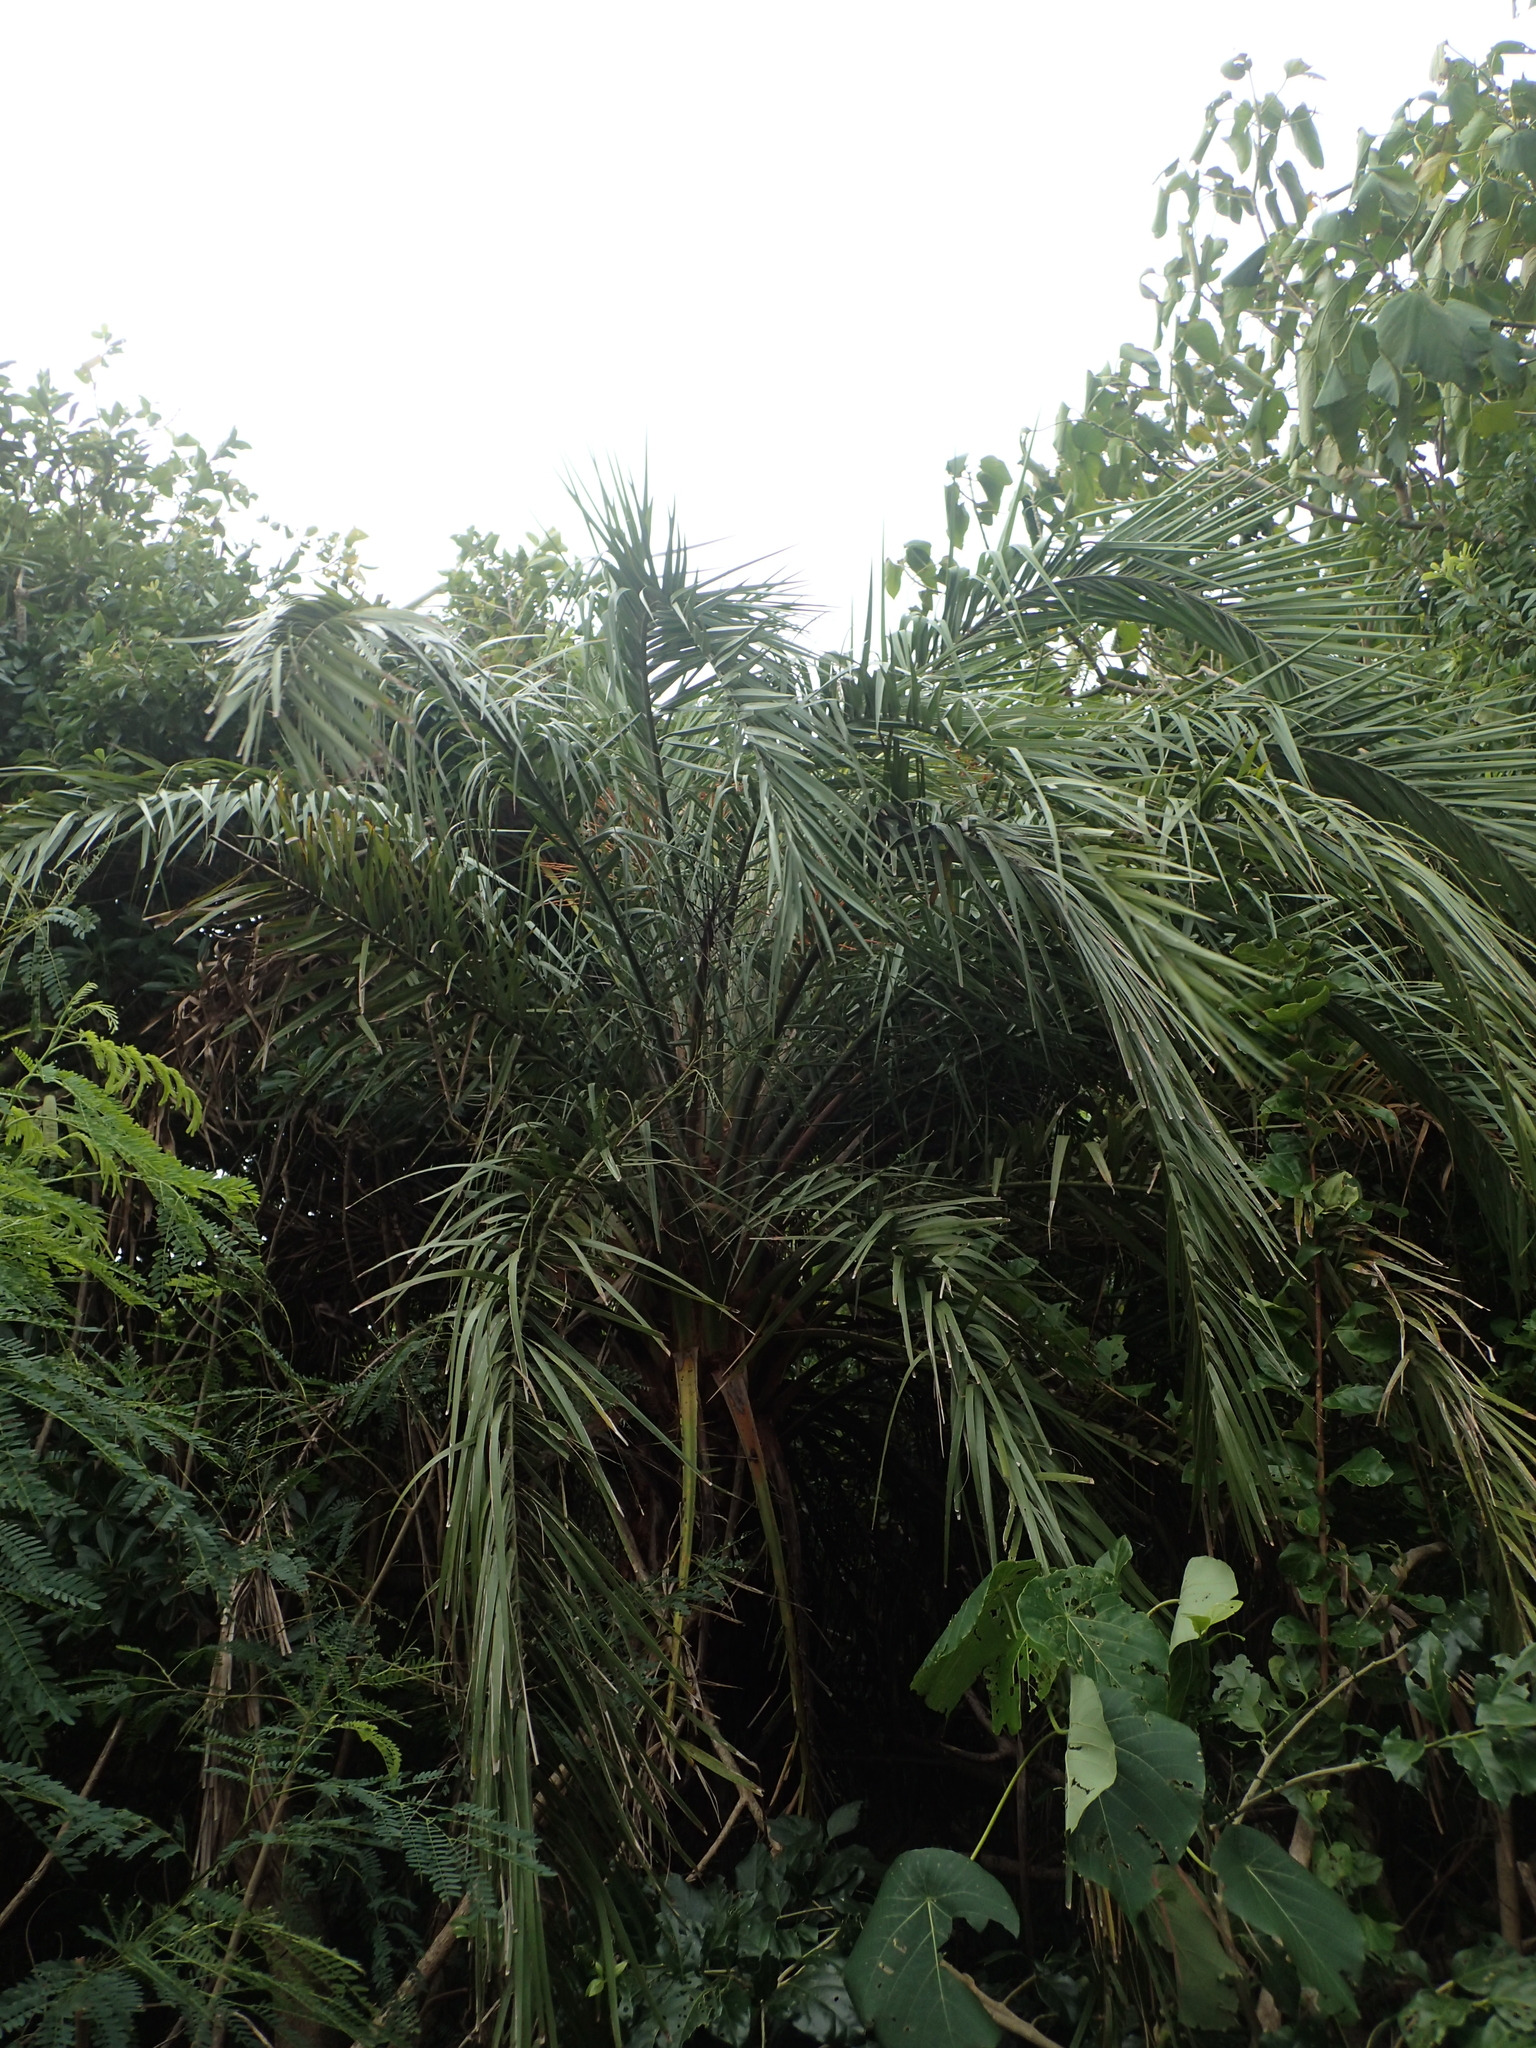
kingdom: Plantae
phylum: Tracheophyta
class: Liliopsida
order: Arecales
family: Arecaceae
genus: Phoenix
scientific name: Phoenix loureiroi
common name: Loureiro's palm
